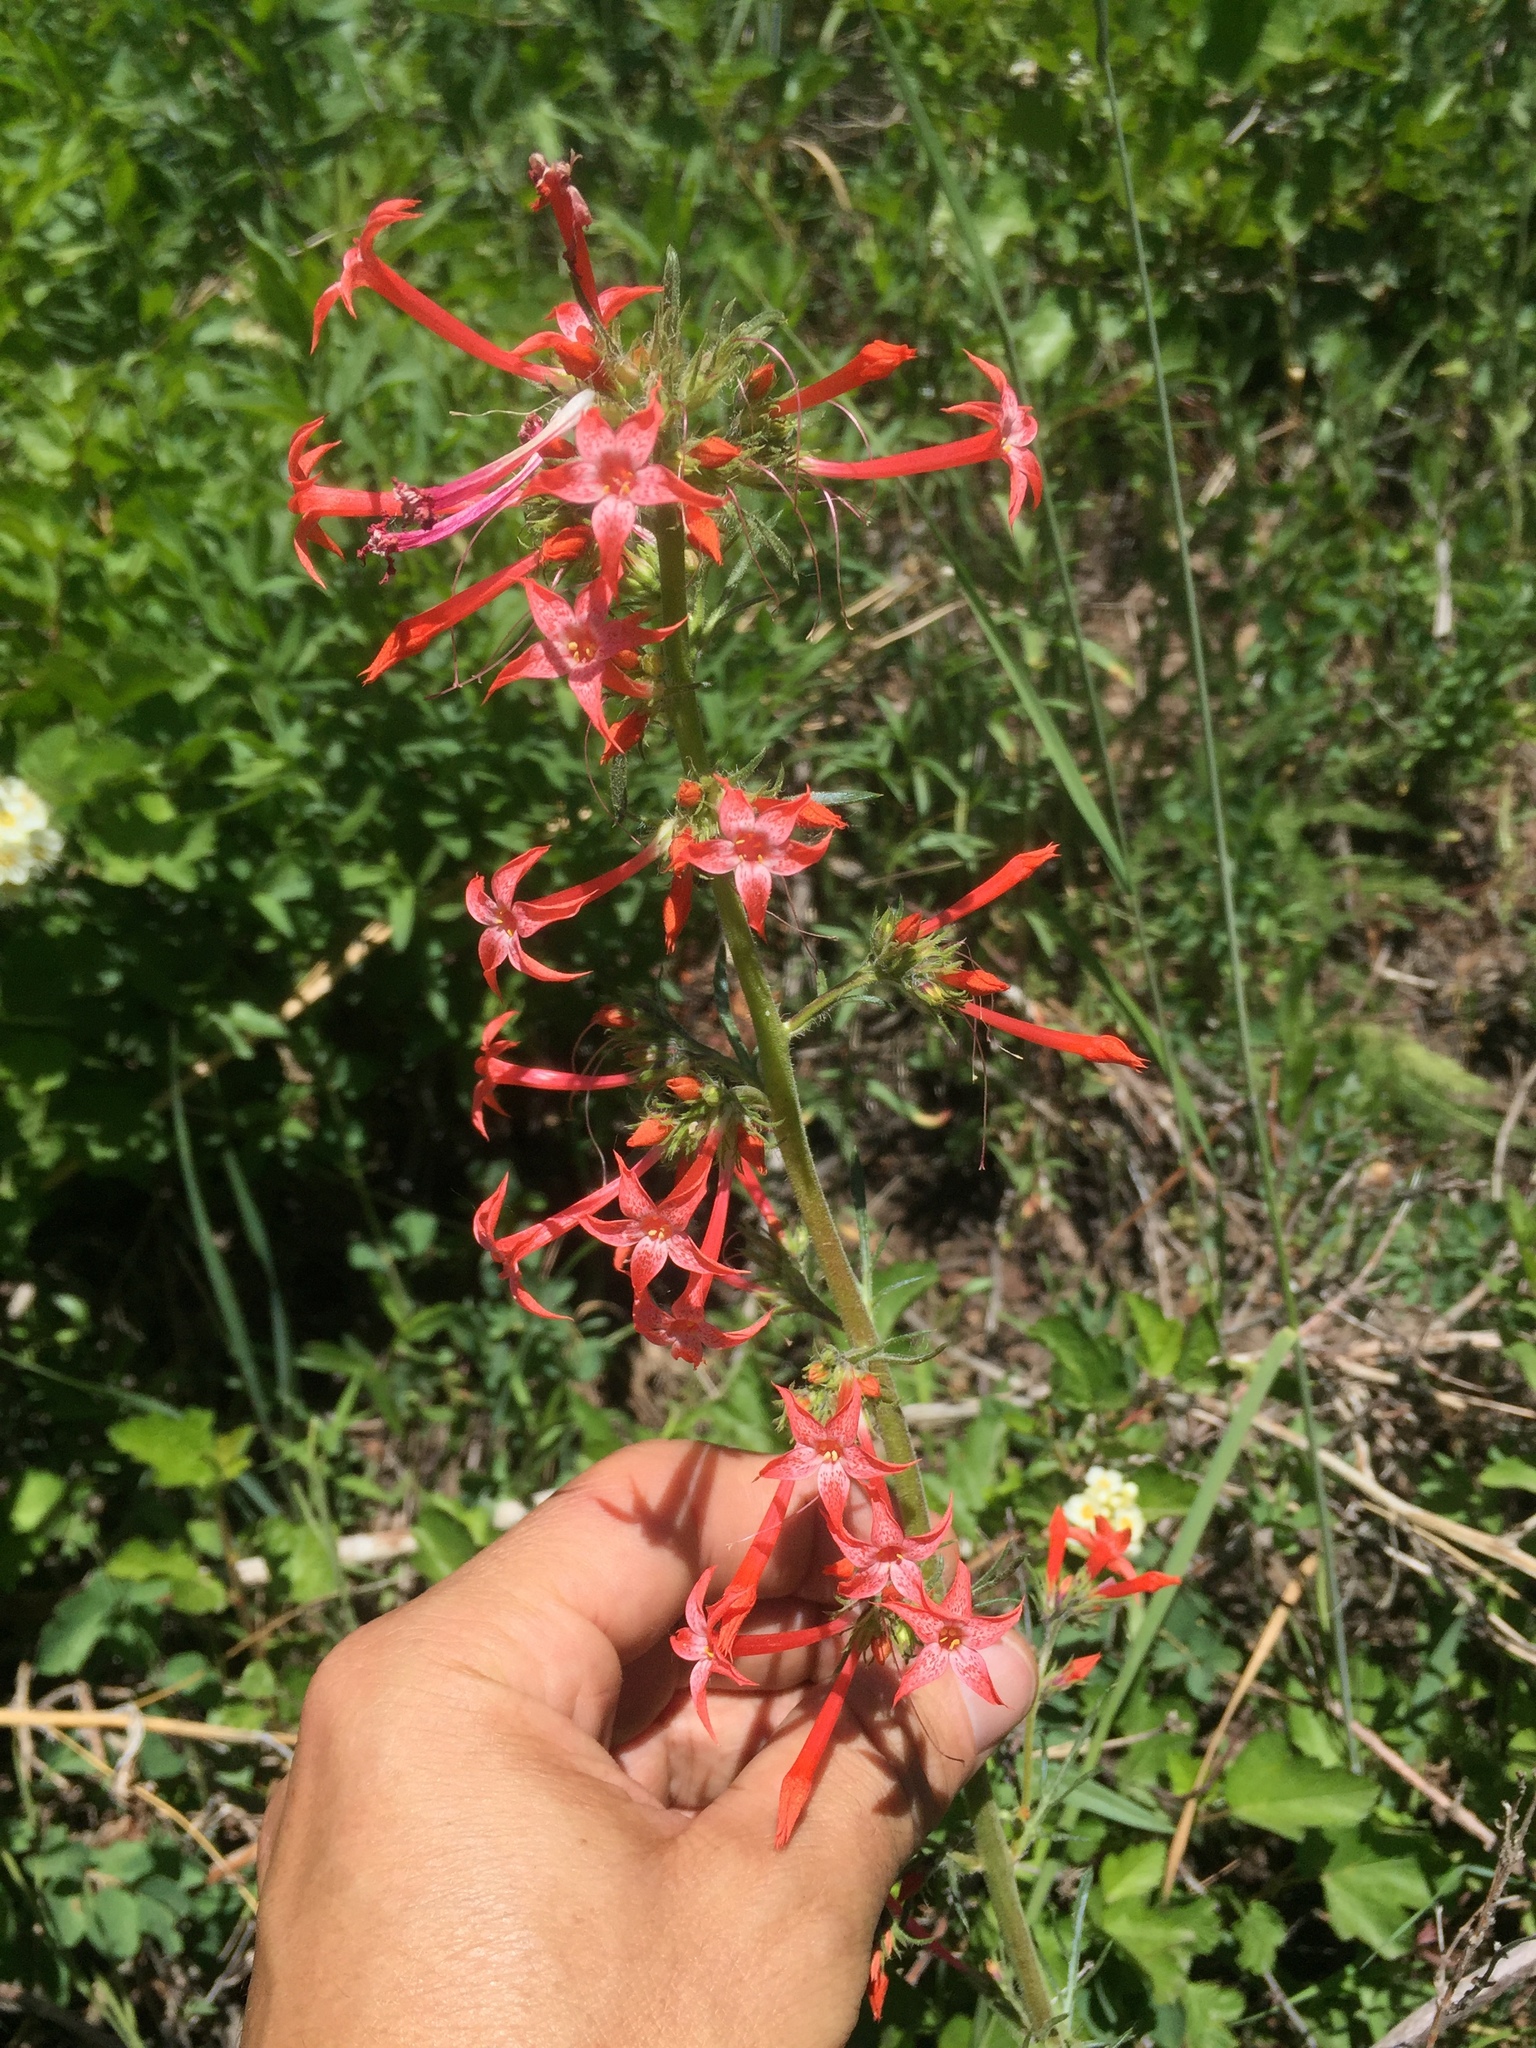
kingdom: Plantae
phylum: Tracheophyta
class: Magnoliopsida
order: Ericales
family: Polemoniaceae
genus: Ipomopsis
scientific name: Ipomopsis aggregata
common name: Scarlet gilia
